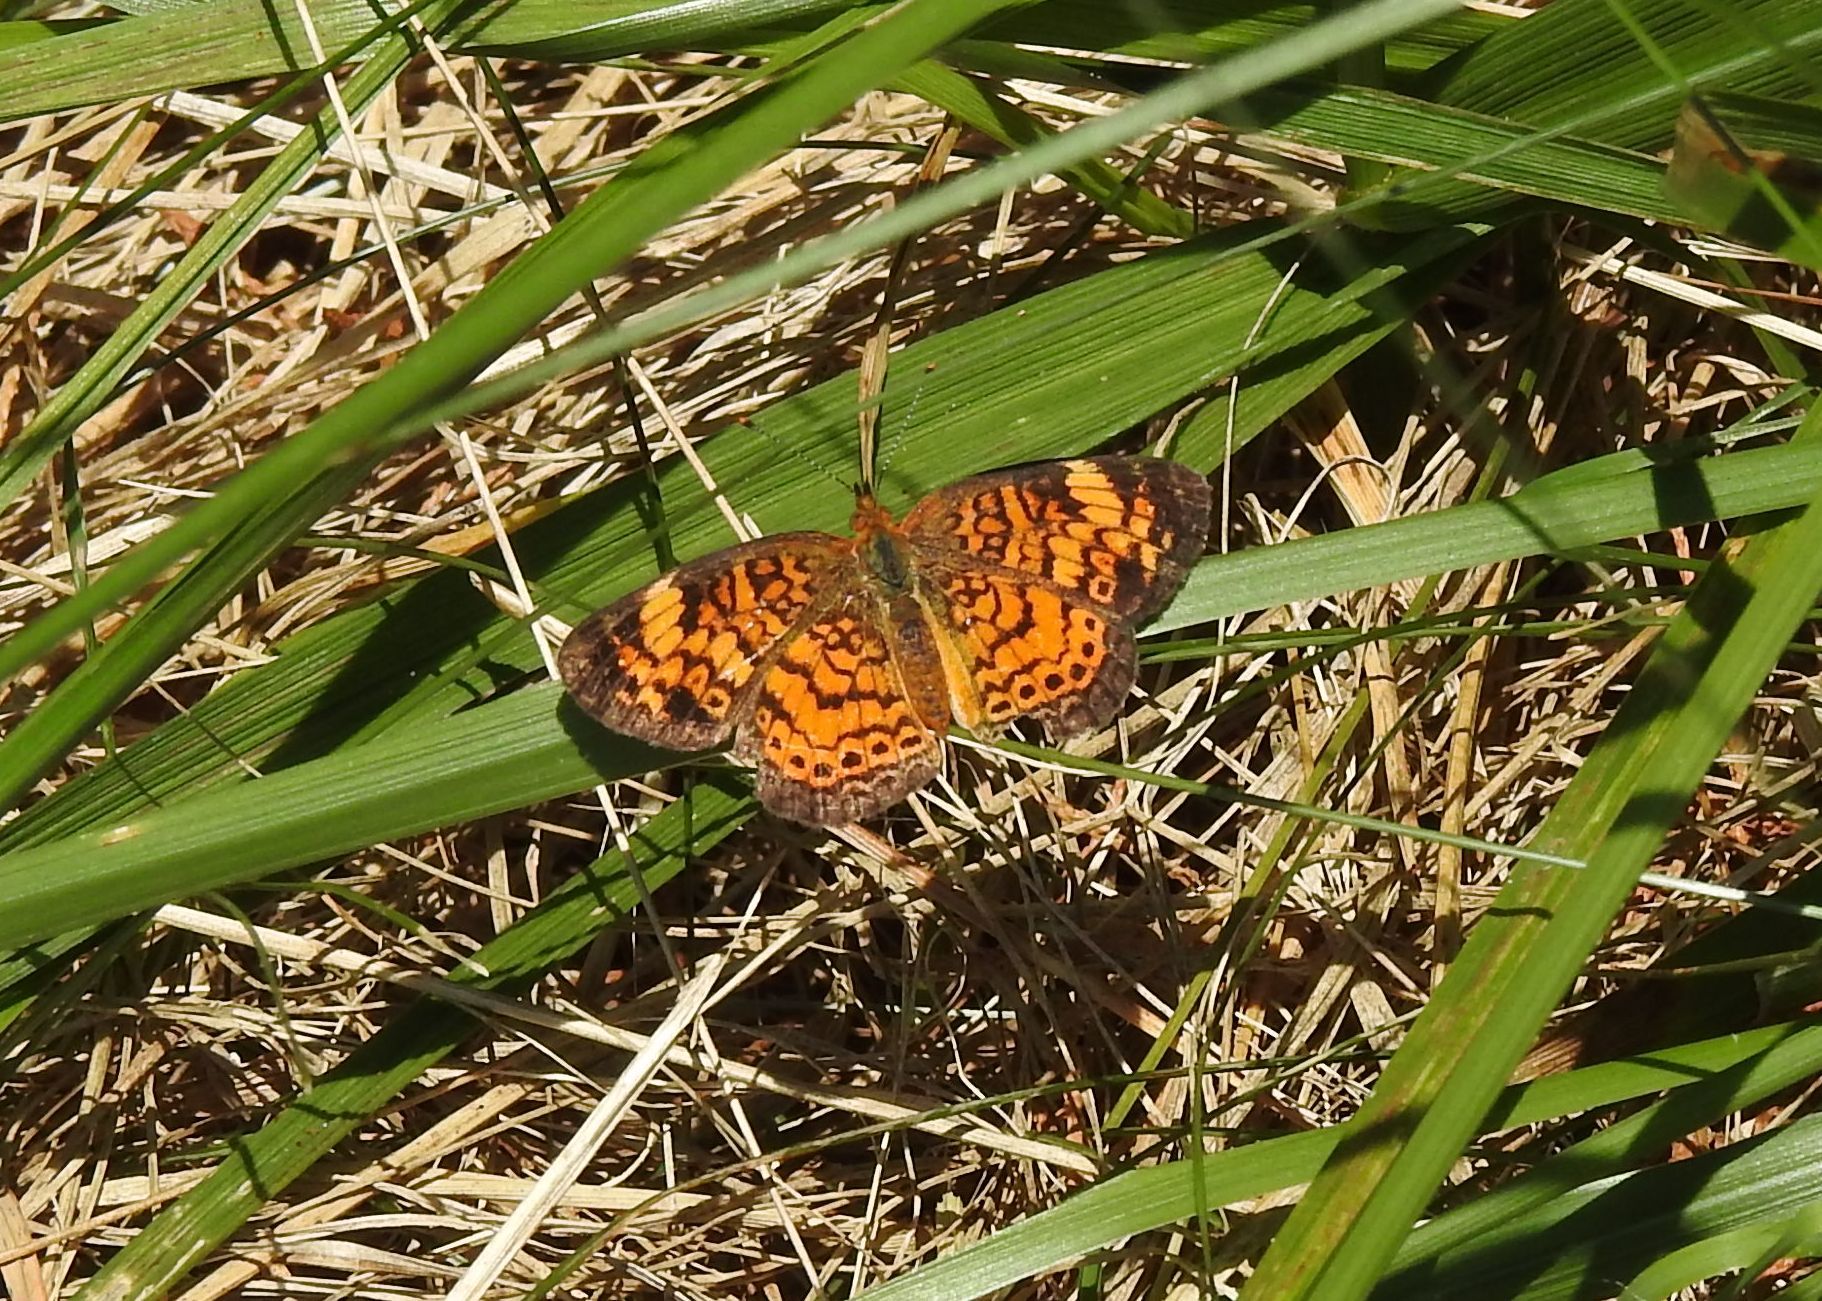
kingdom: Animalia
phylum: Arthropoda
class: Insecta
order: Lepidoptera
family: Nymphalidae
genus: Phyciodes
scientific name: Phyciodes tharos
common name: Pearl crescent
